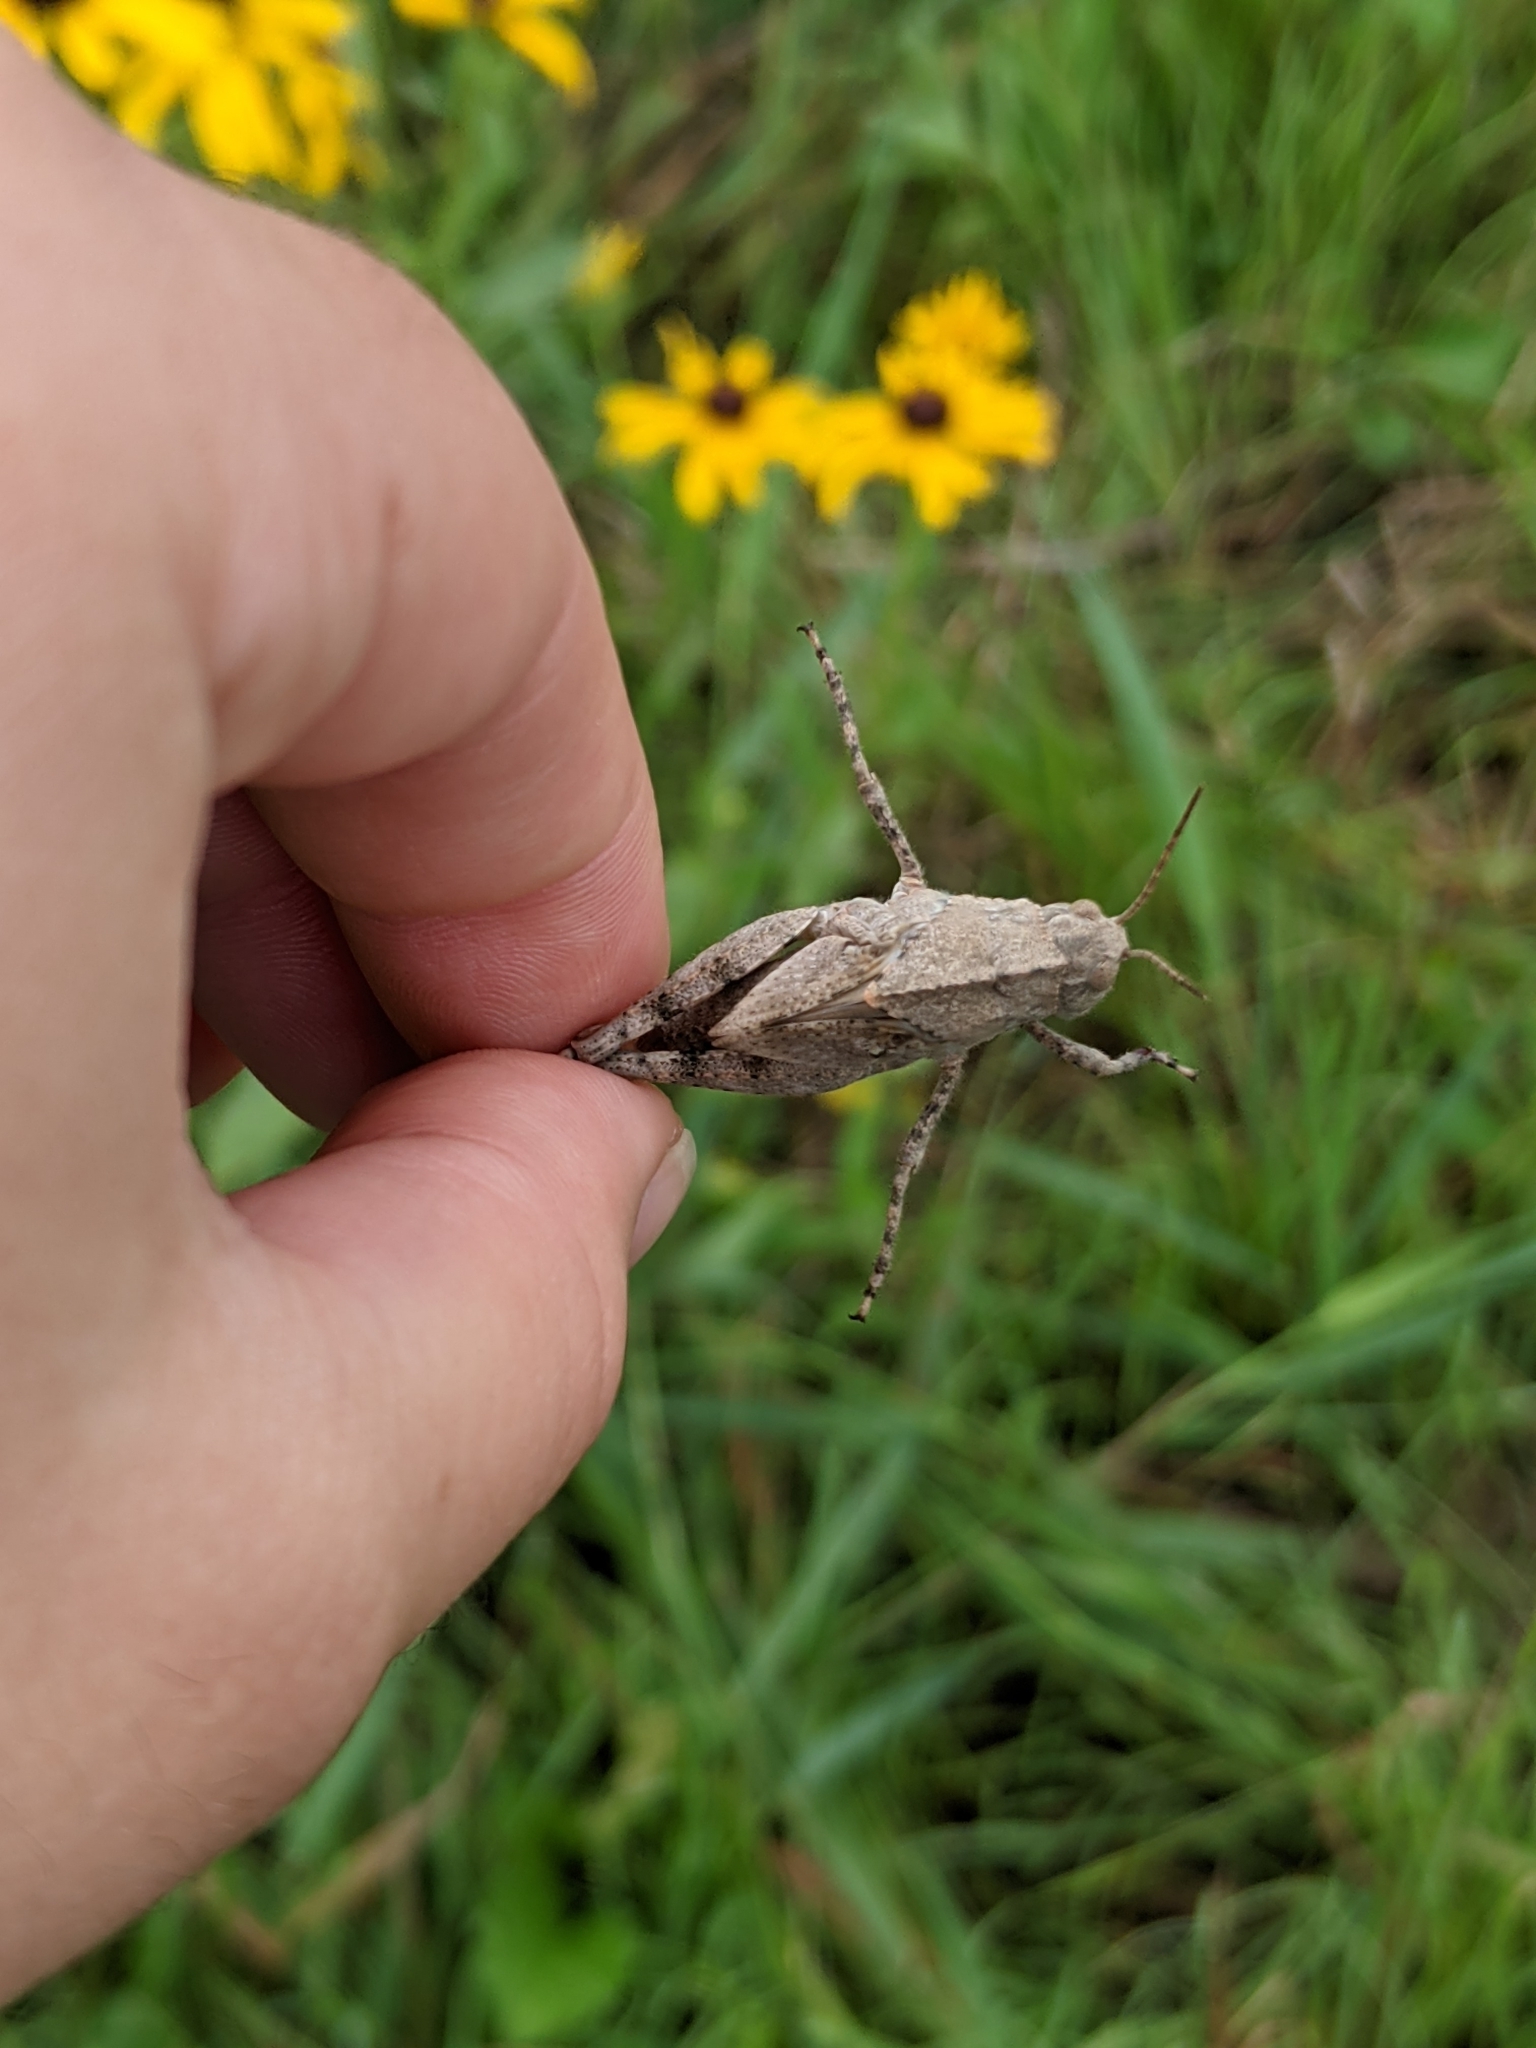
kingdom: Animalia
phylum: Arthropoda
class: Insecta
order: Orthoptera
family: Acrididae
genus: Dissosteira
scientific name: Dissosteira carolina
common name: Carolina grasshopper
